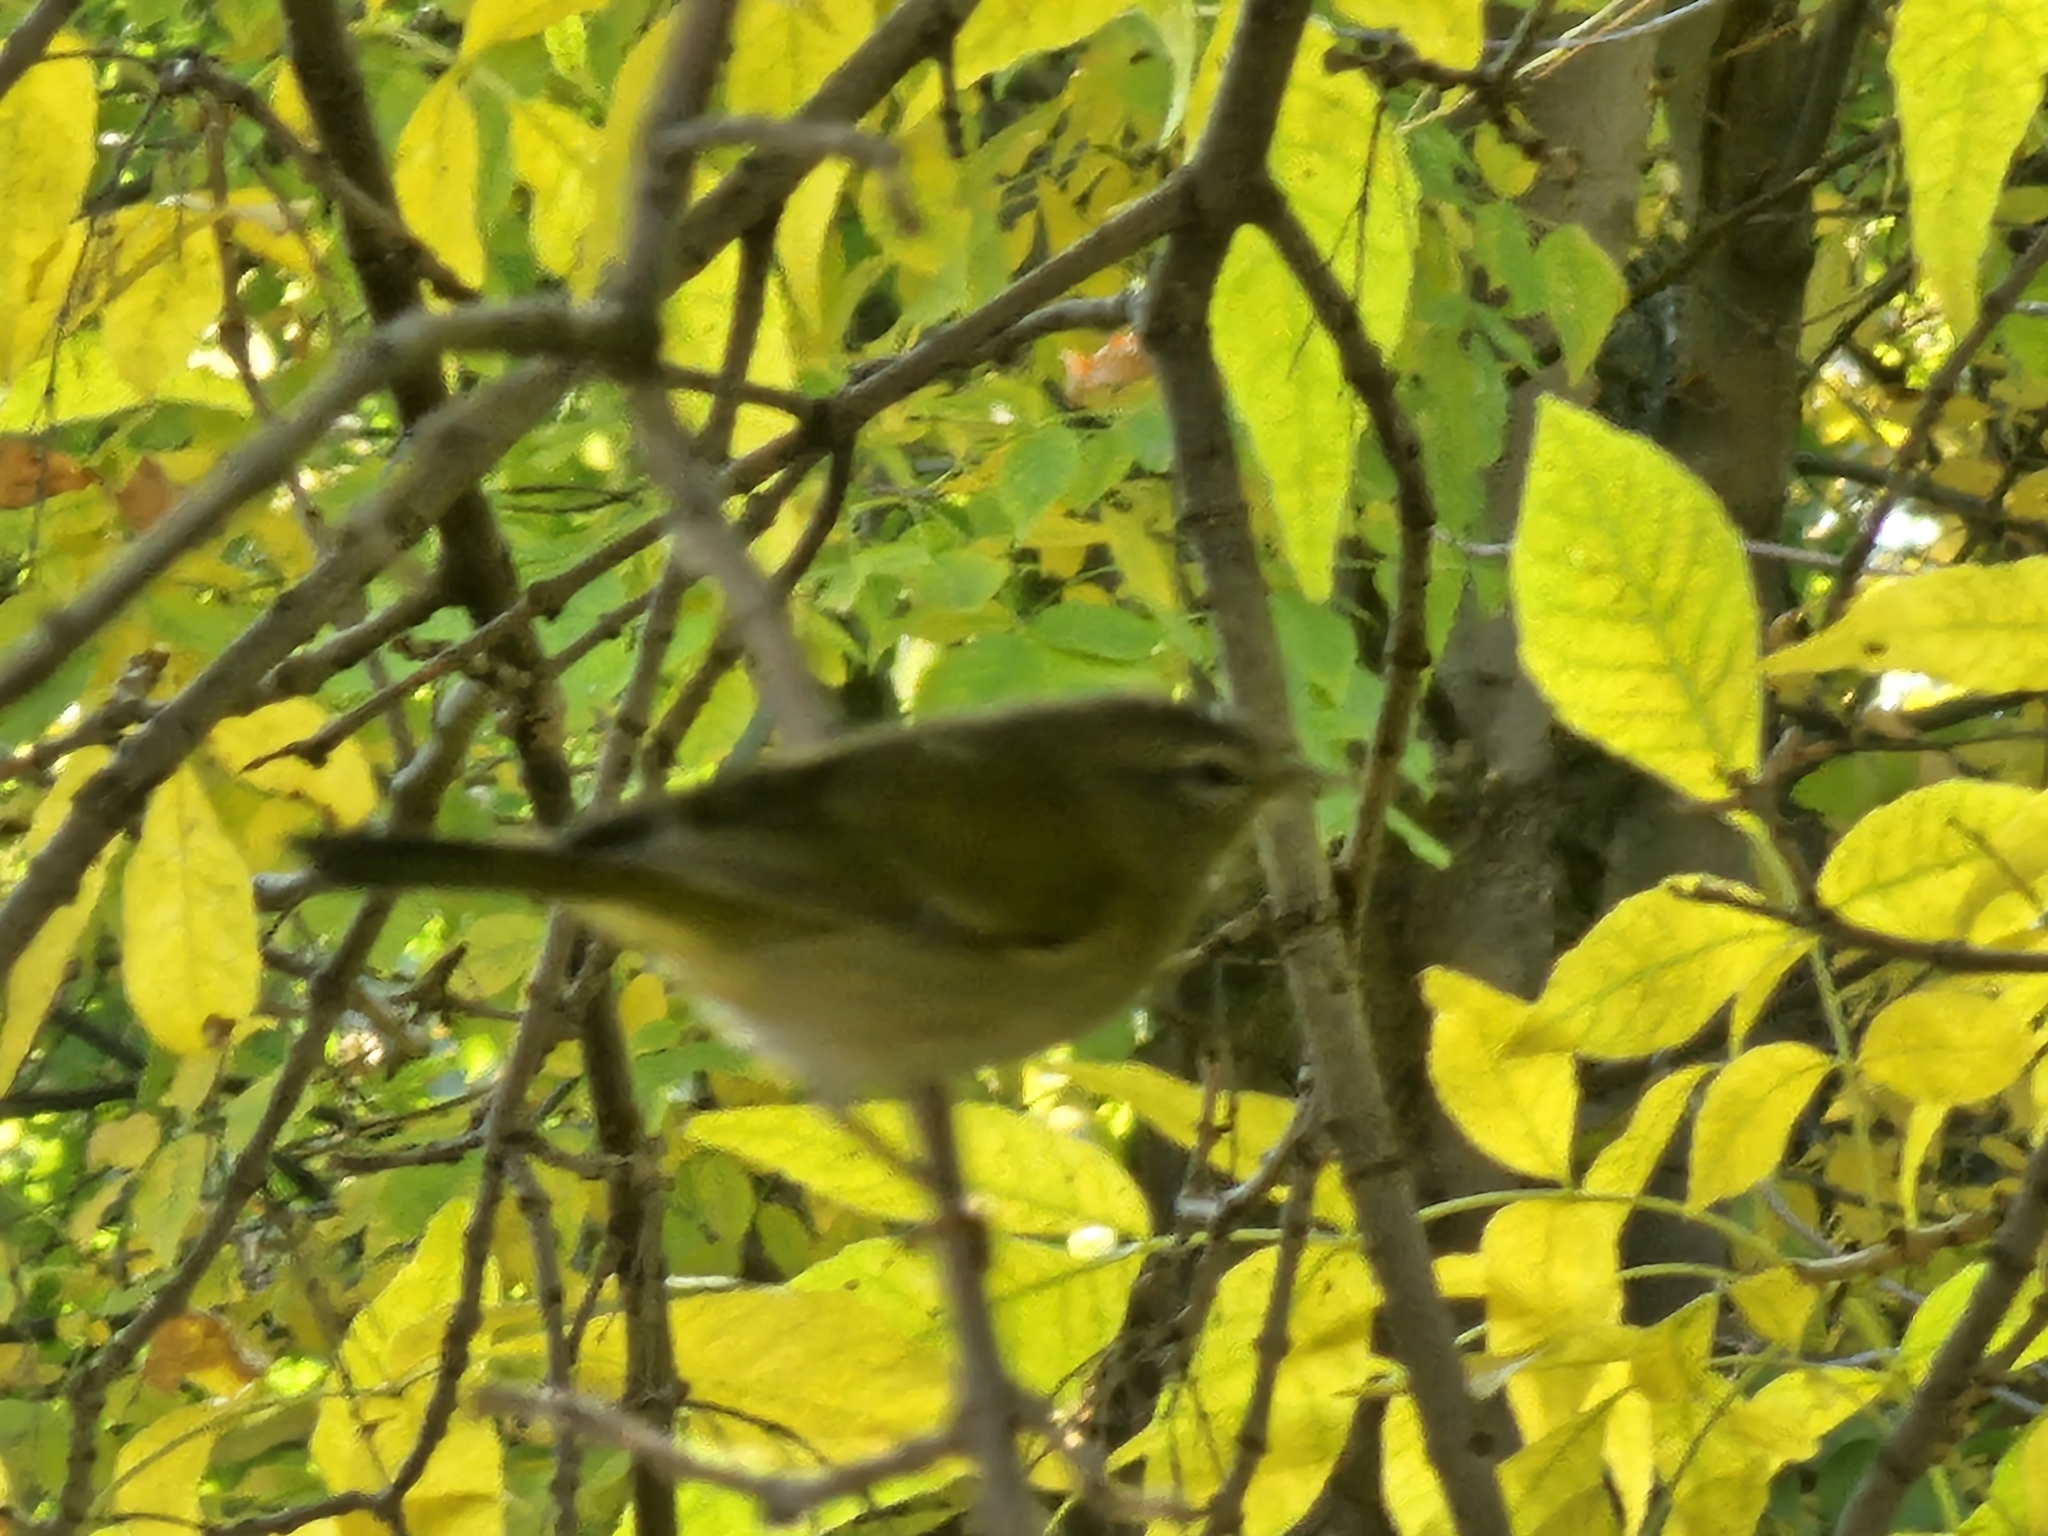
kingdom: Animalia
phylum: Chordata
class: Aves
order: Passeriformes
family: Parulidae
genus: Leiothlypis
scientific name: Leiothlypis peregrina
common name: Tennessee warbler
